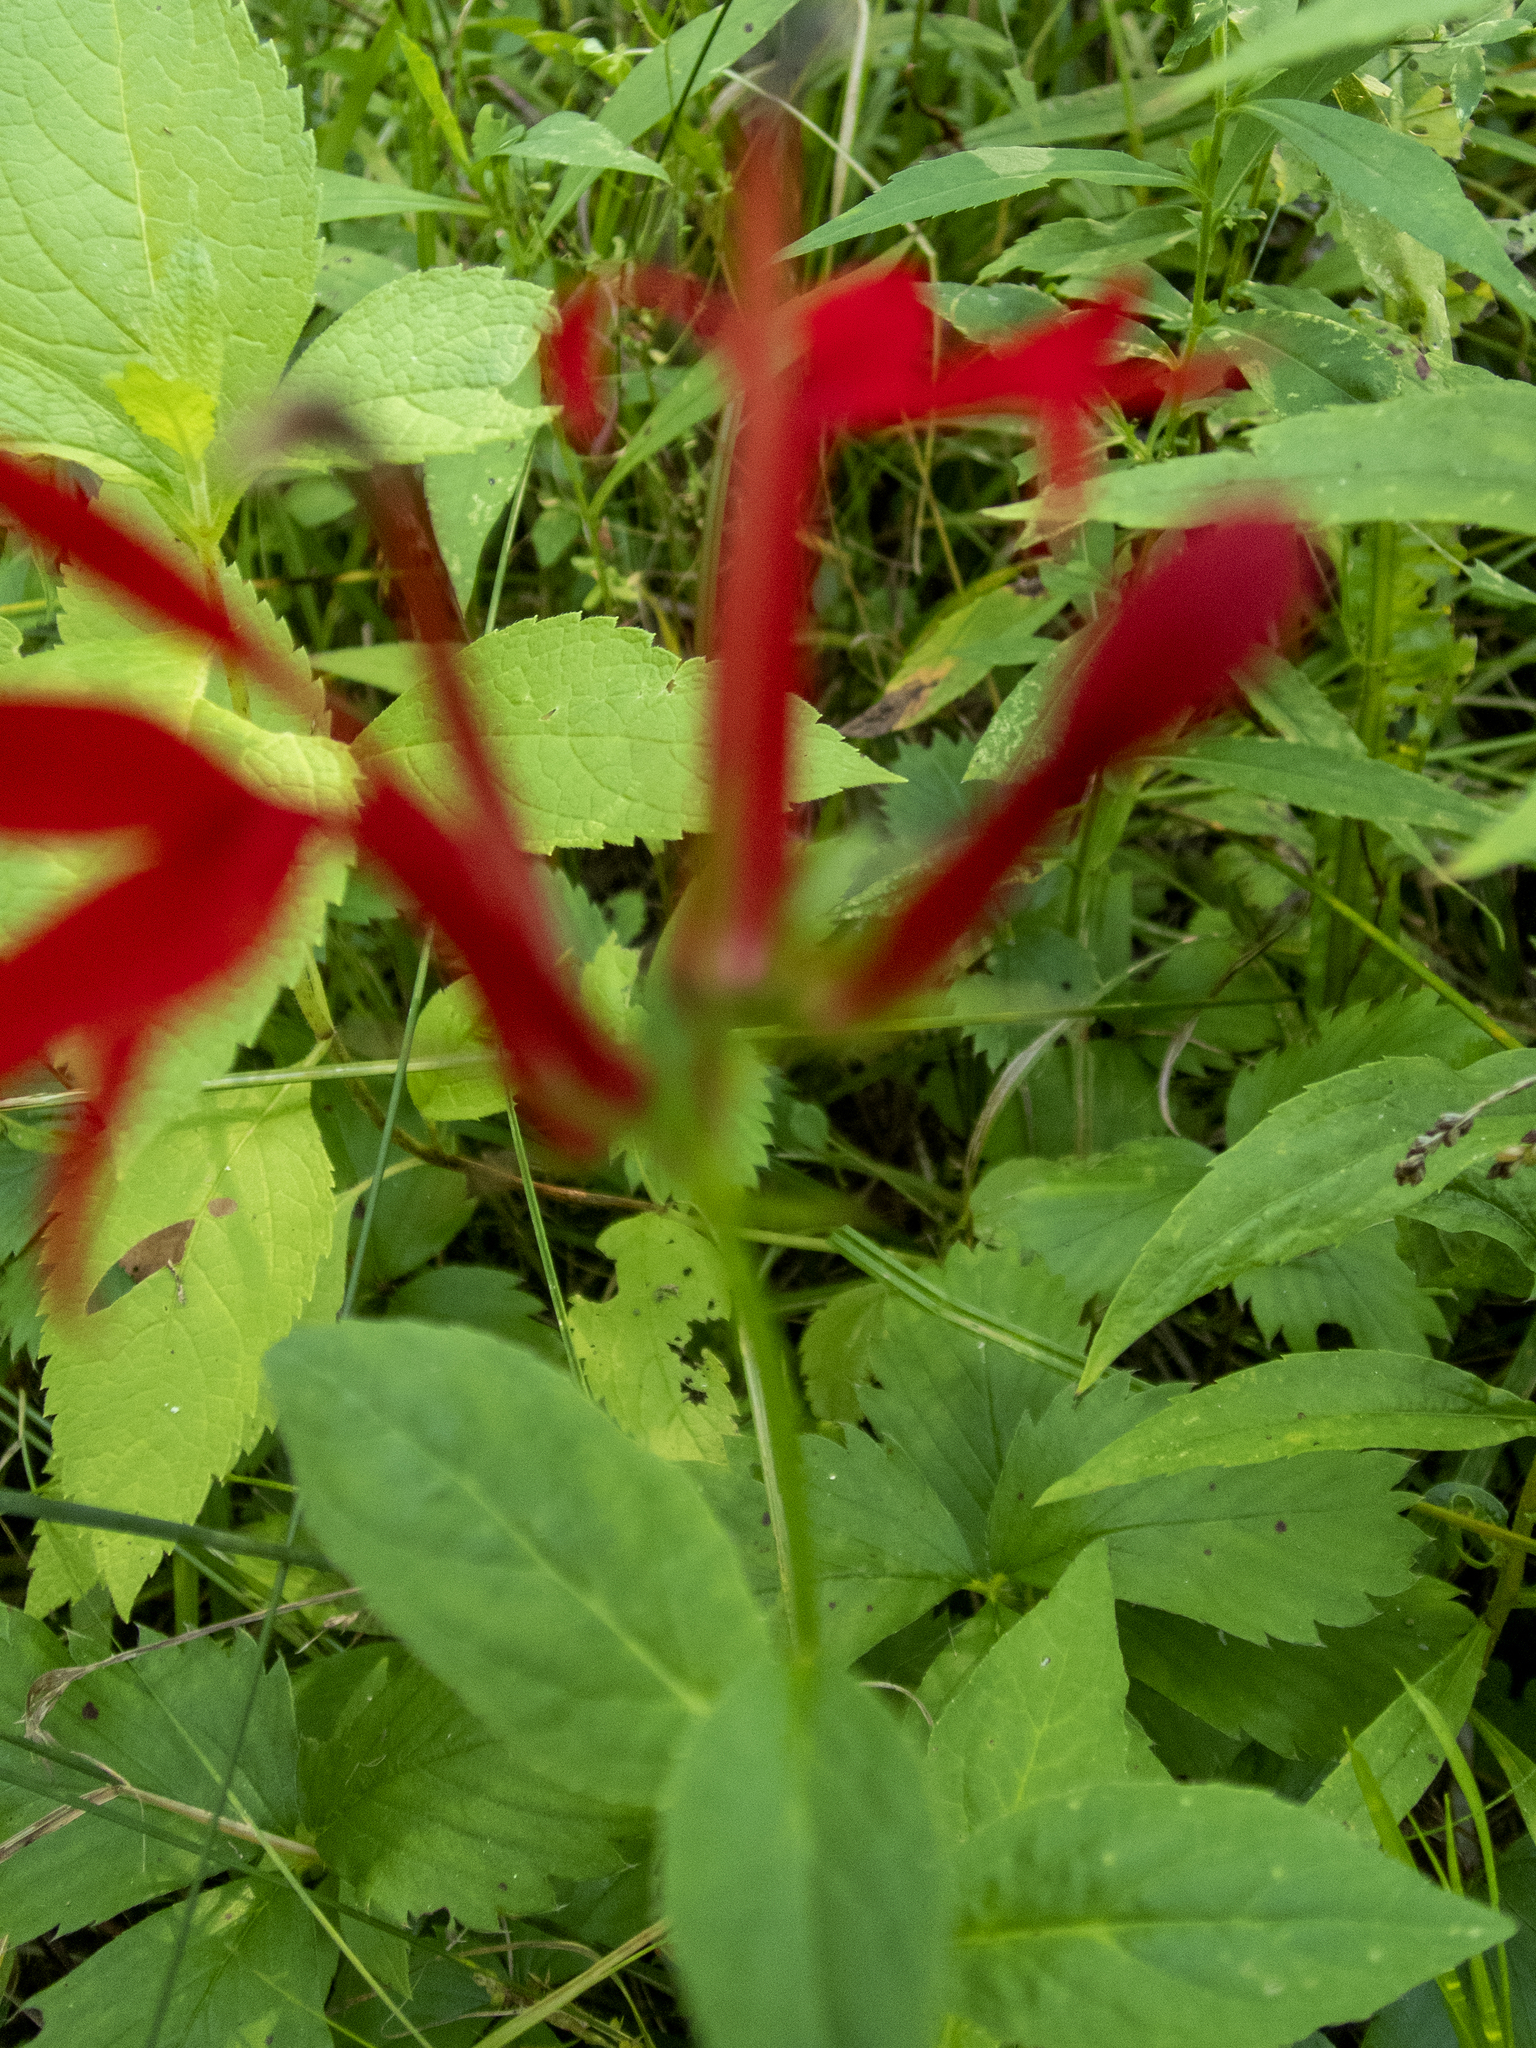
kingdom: Plantae
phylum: Tracheophyta
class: Magnoliopsida
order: Asterales
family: Campanulaceae
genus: Lobelia
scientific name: Lobelia cardinalis
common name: Cardinal flower
